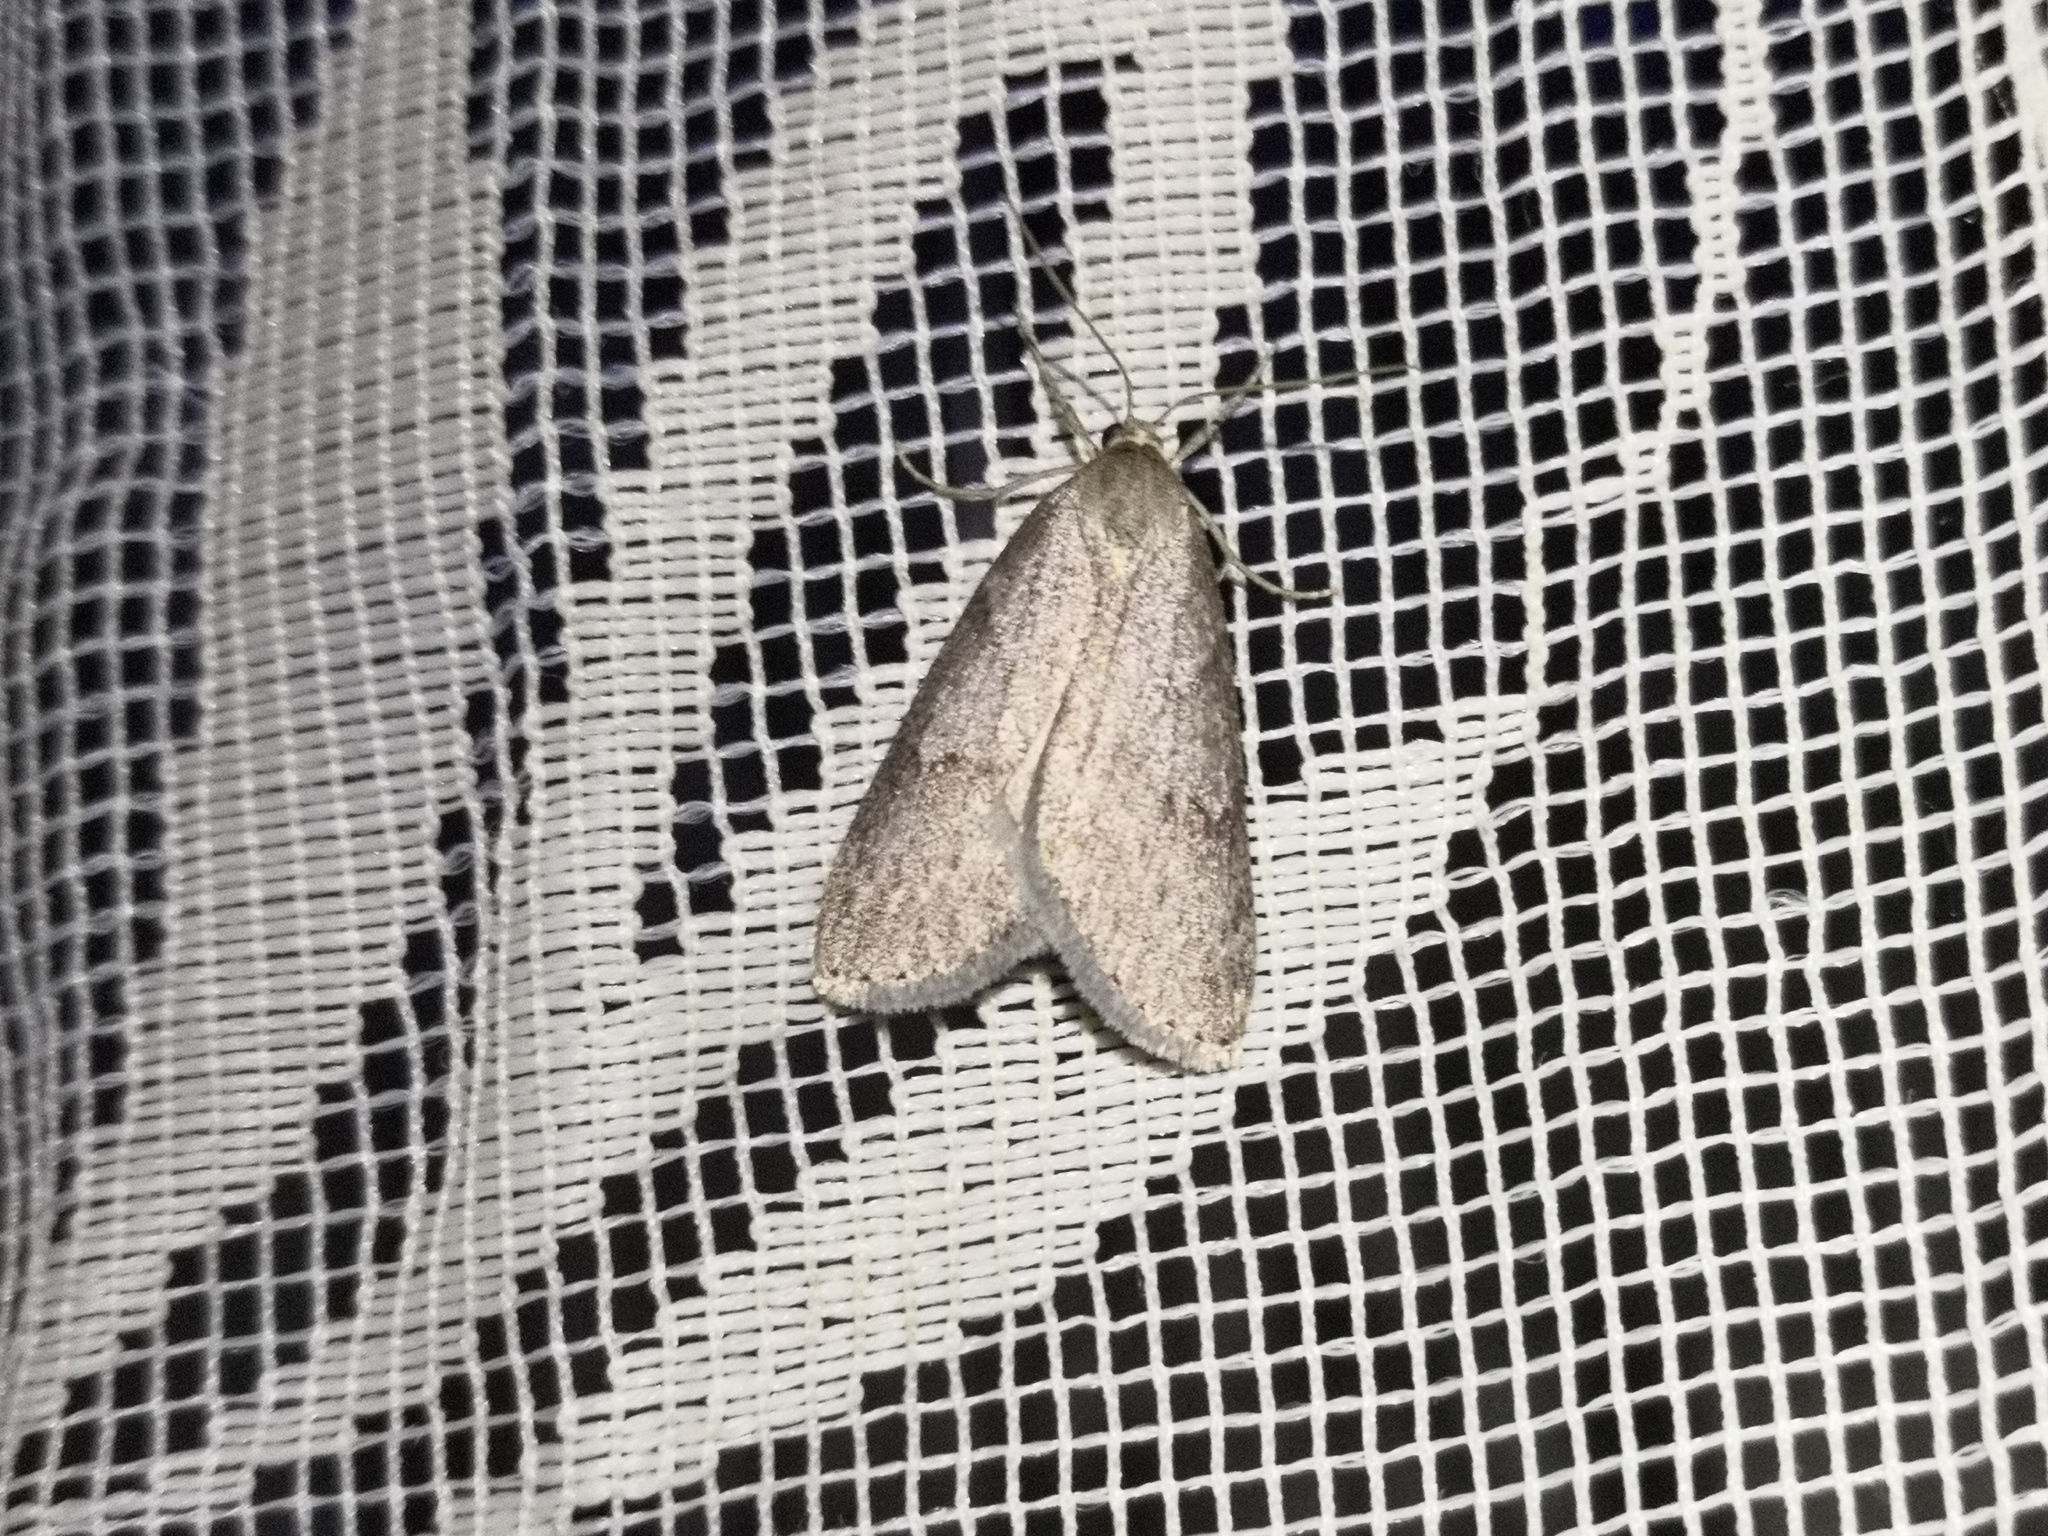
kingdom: Animalia
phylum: Arthropoda
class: Insecta
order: Lepidoptera
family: Geometridae
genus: Pachycnemia
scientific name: Pachycnemia hippocastanaria
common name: Horse chestnut
